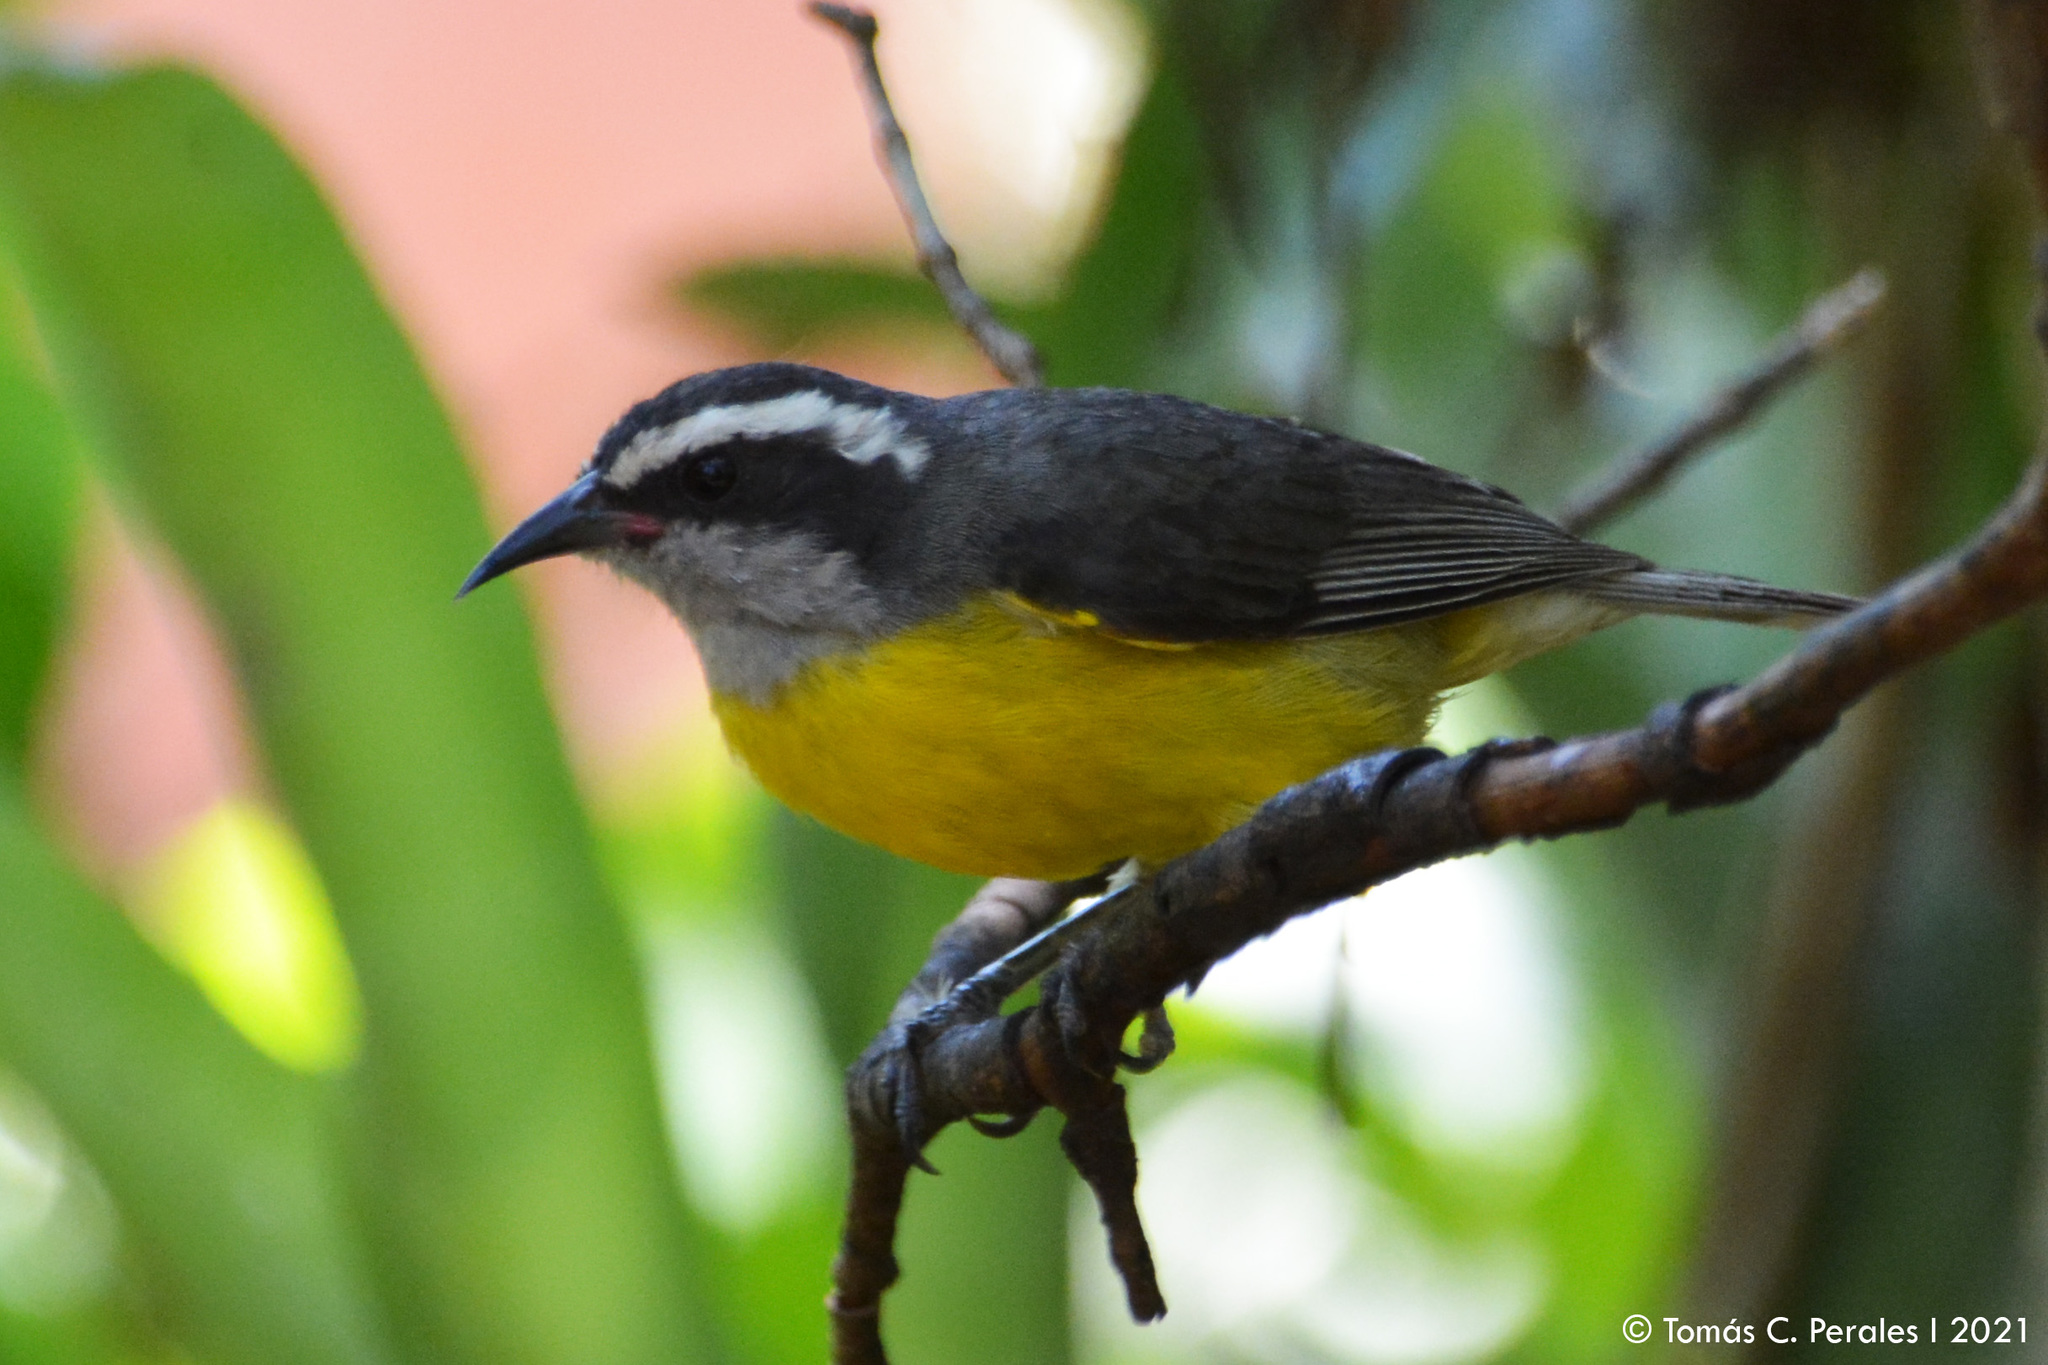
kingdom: Animalia
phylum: Chordata
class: Aves
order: Passeriformes
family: Thraupidae
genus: Coereba
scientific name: Coereba flaveola
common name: Bananaquit
